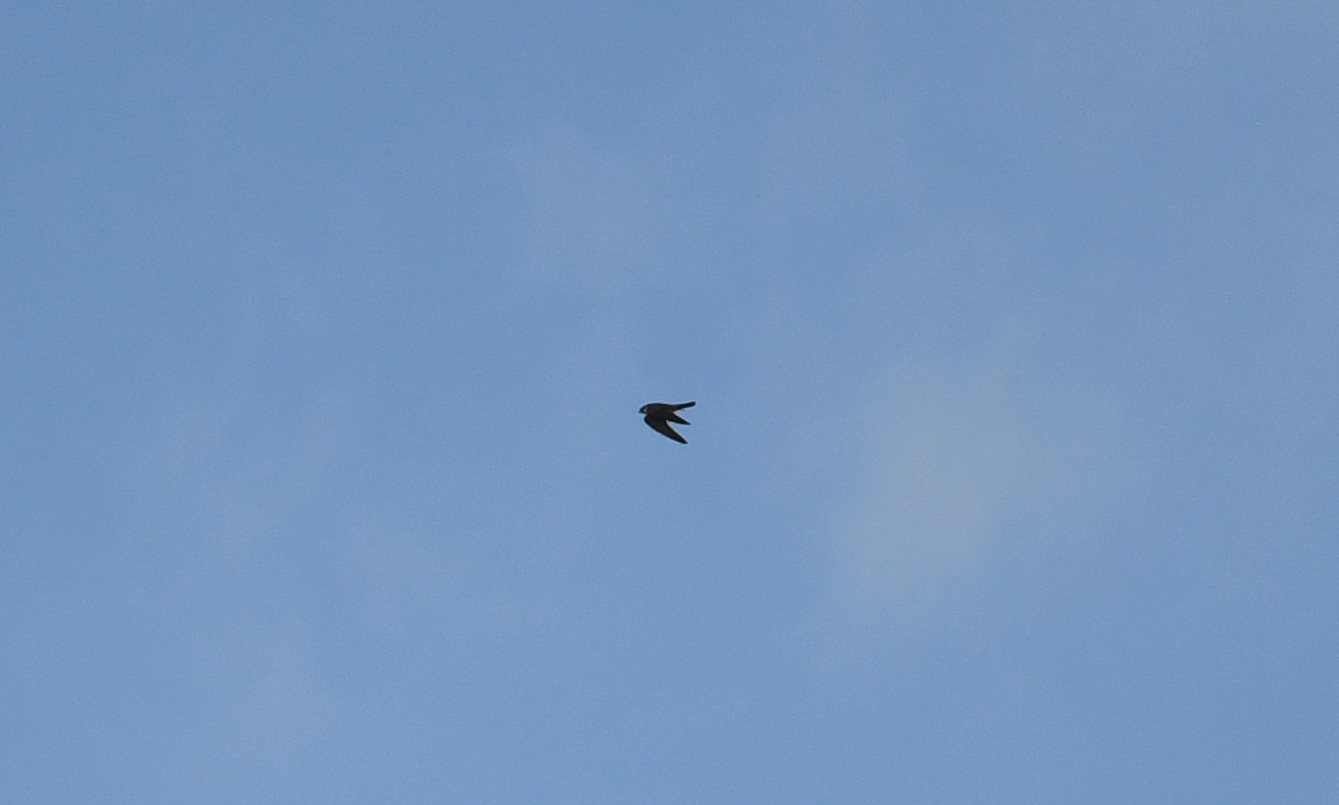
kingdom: Animalia
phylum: Chordata
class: Aves
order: Falconiformes
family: Falconidae
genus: Falco
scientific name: Falco subbuteo
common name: Eurasian hobby
